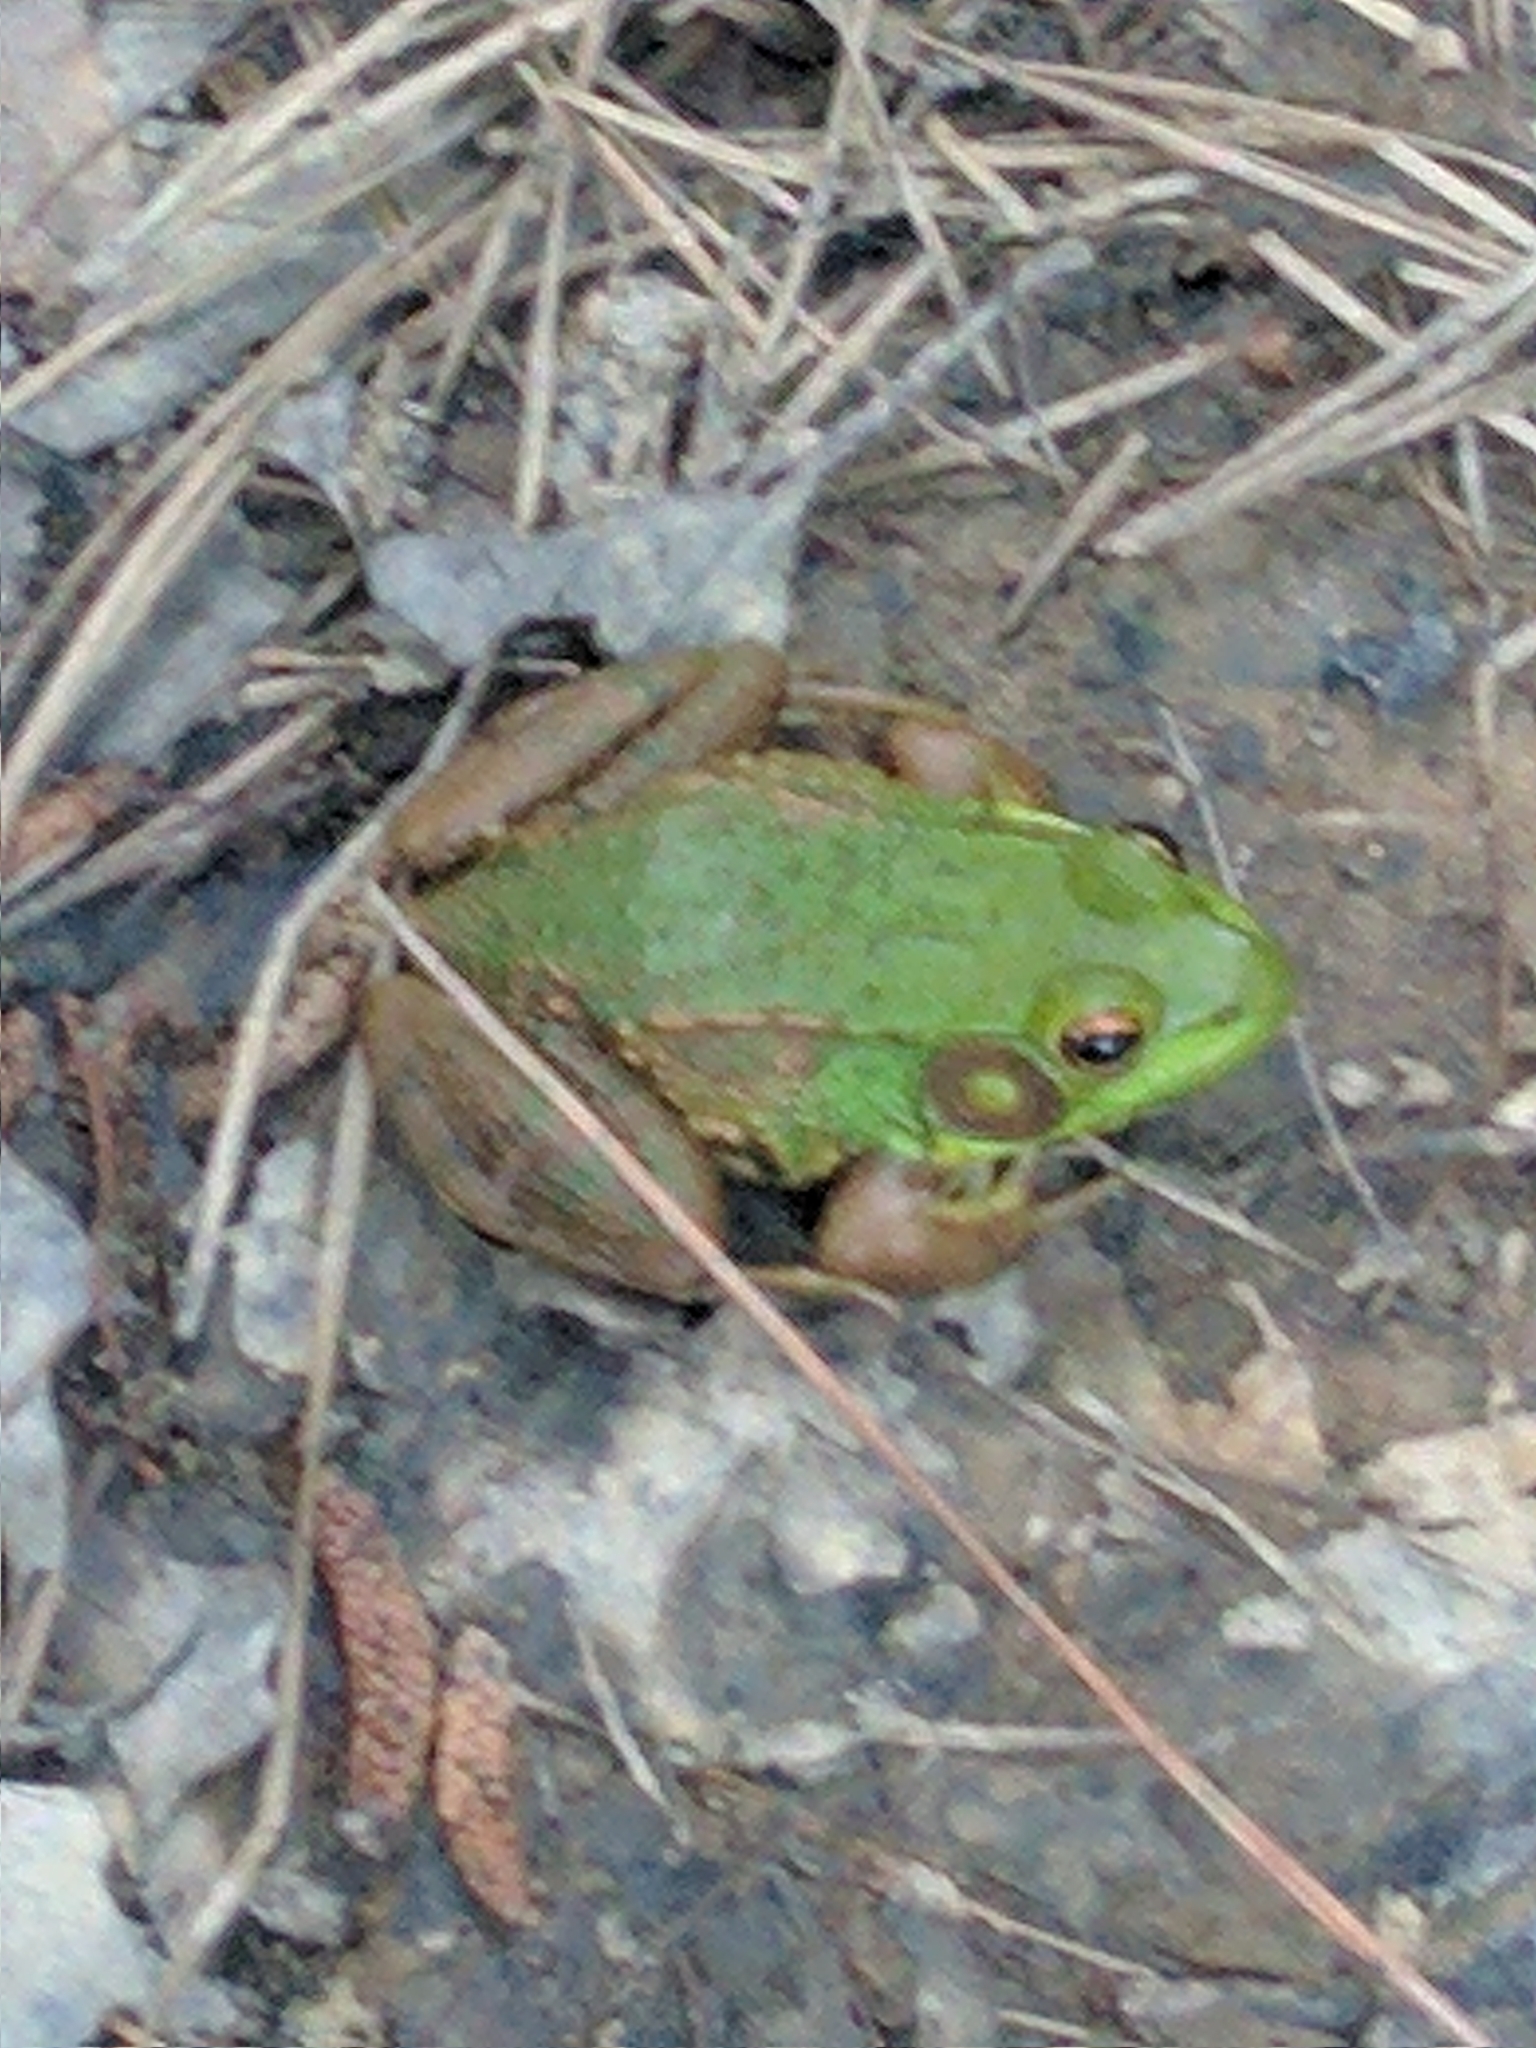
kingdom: Animalia
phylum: Chordata
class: Amphibia
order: Anura
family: Ranidae
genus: Lithobates
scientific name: Lithobates clamitans
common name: Green frog
